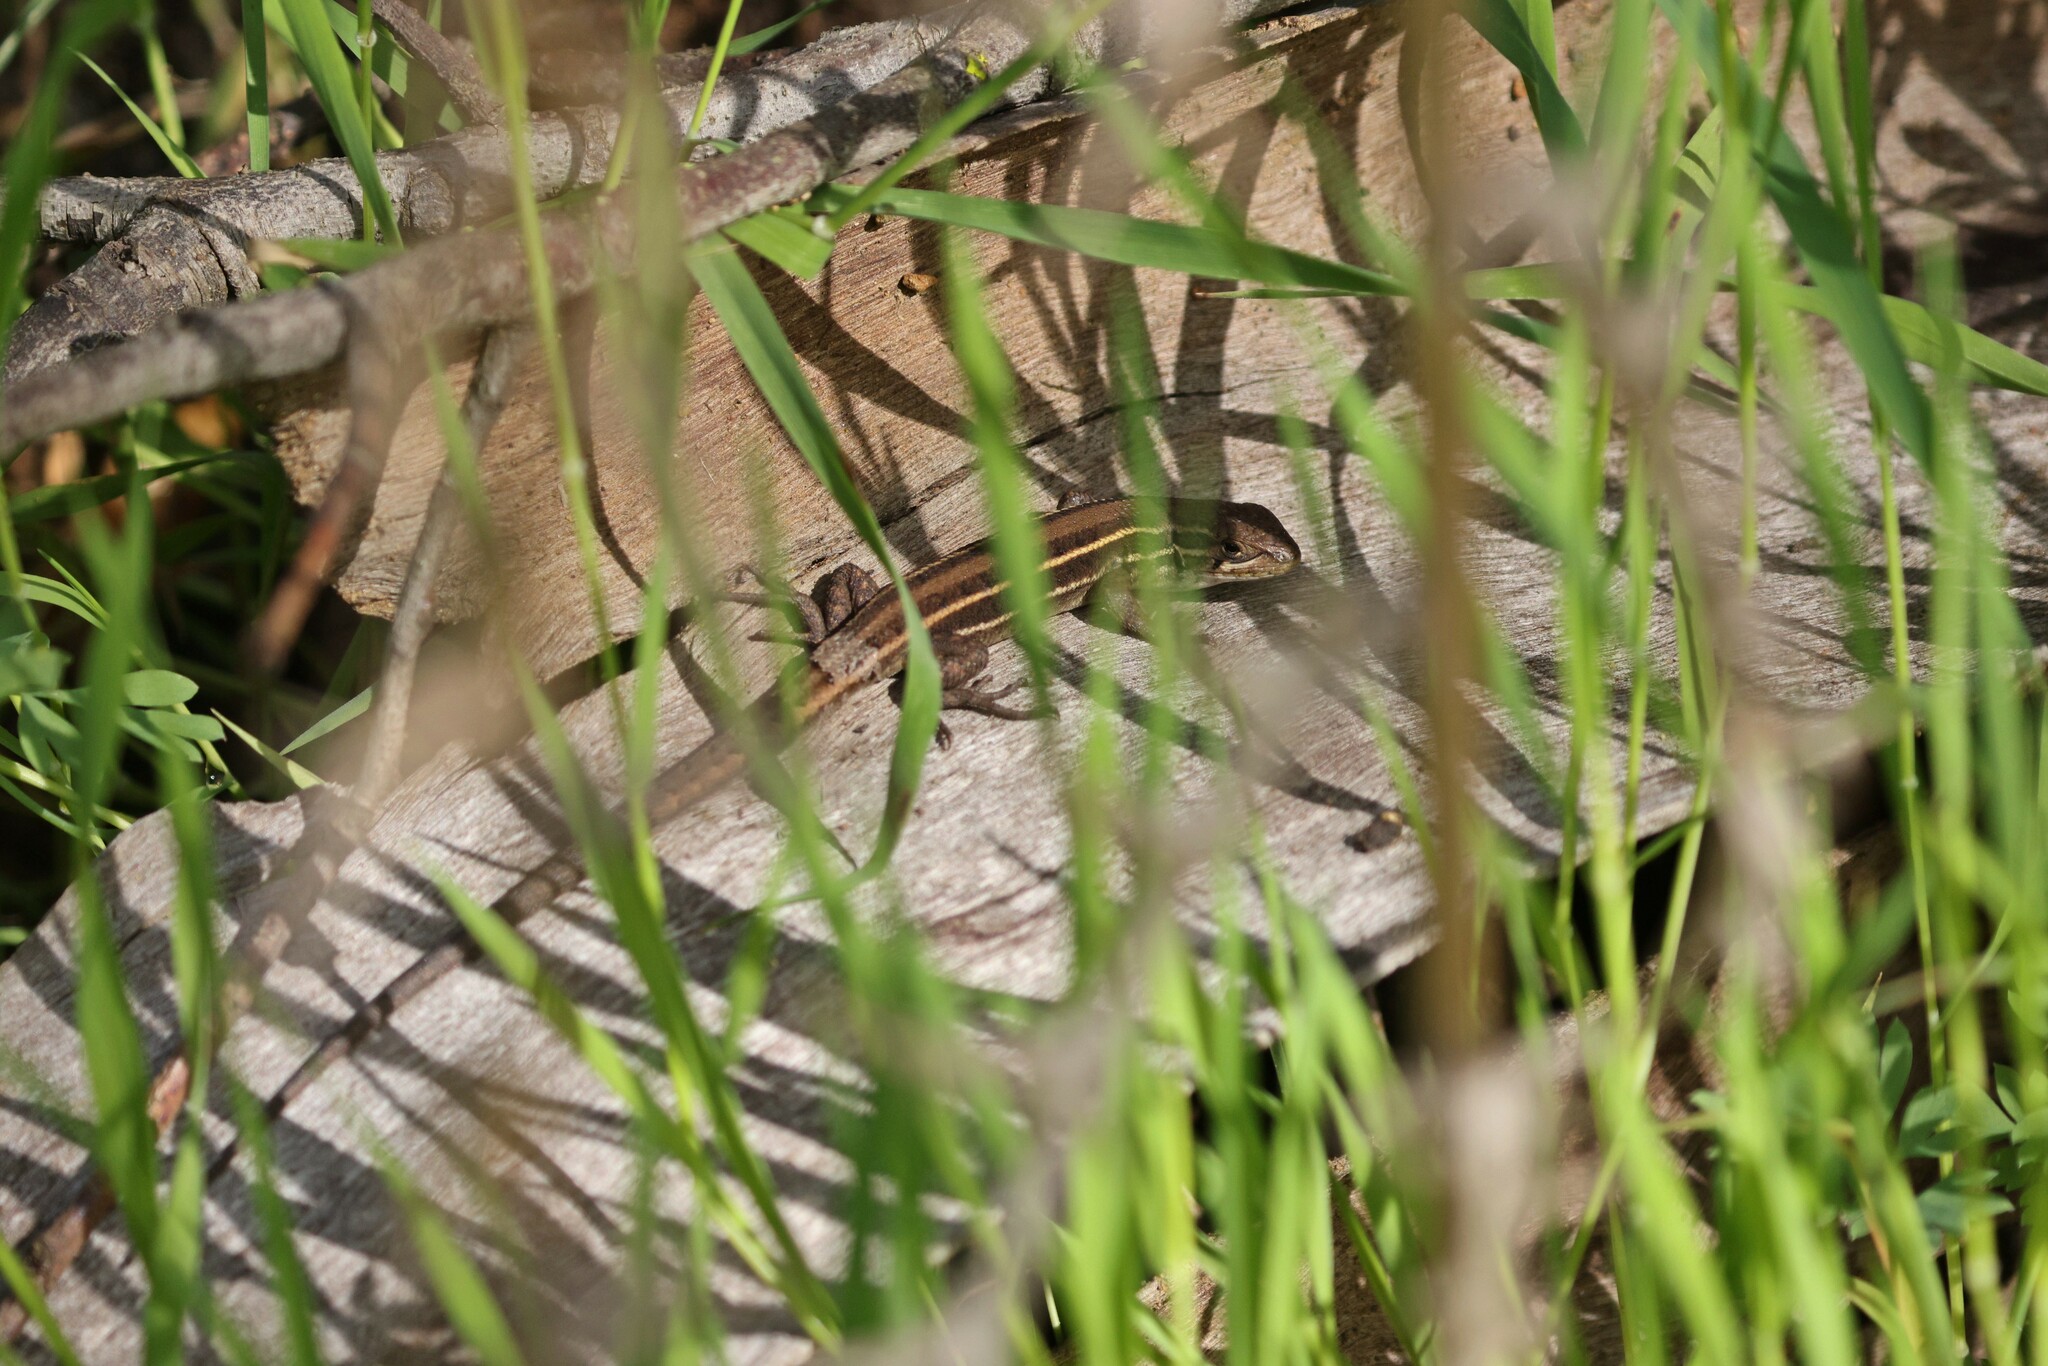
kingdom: Animalia
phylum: Chordata
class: Squamata
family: Liolaemidae
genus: Liolaemus
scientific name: Liolaemus lemniscatus
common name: Wreath tree iguana
